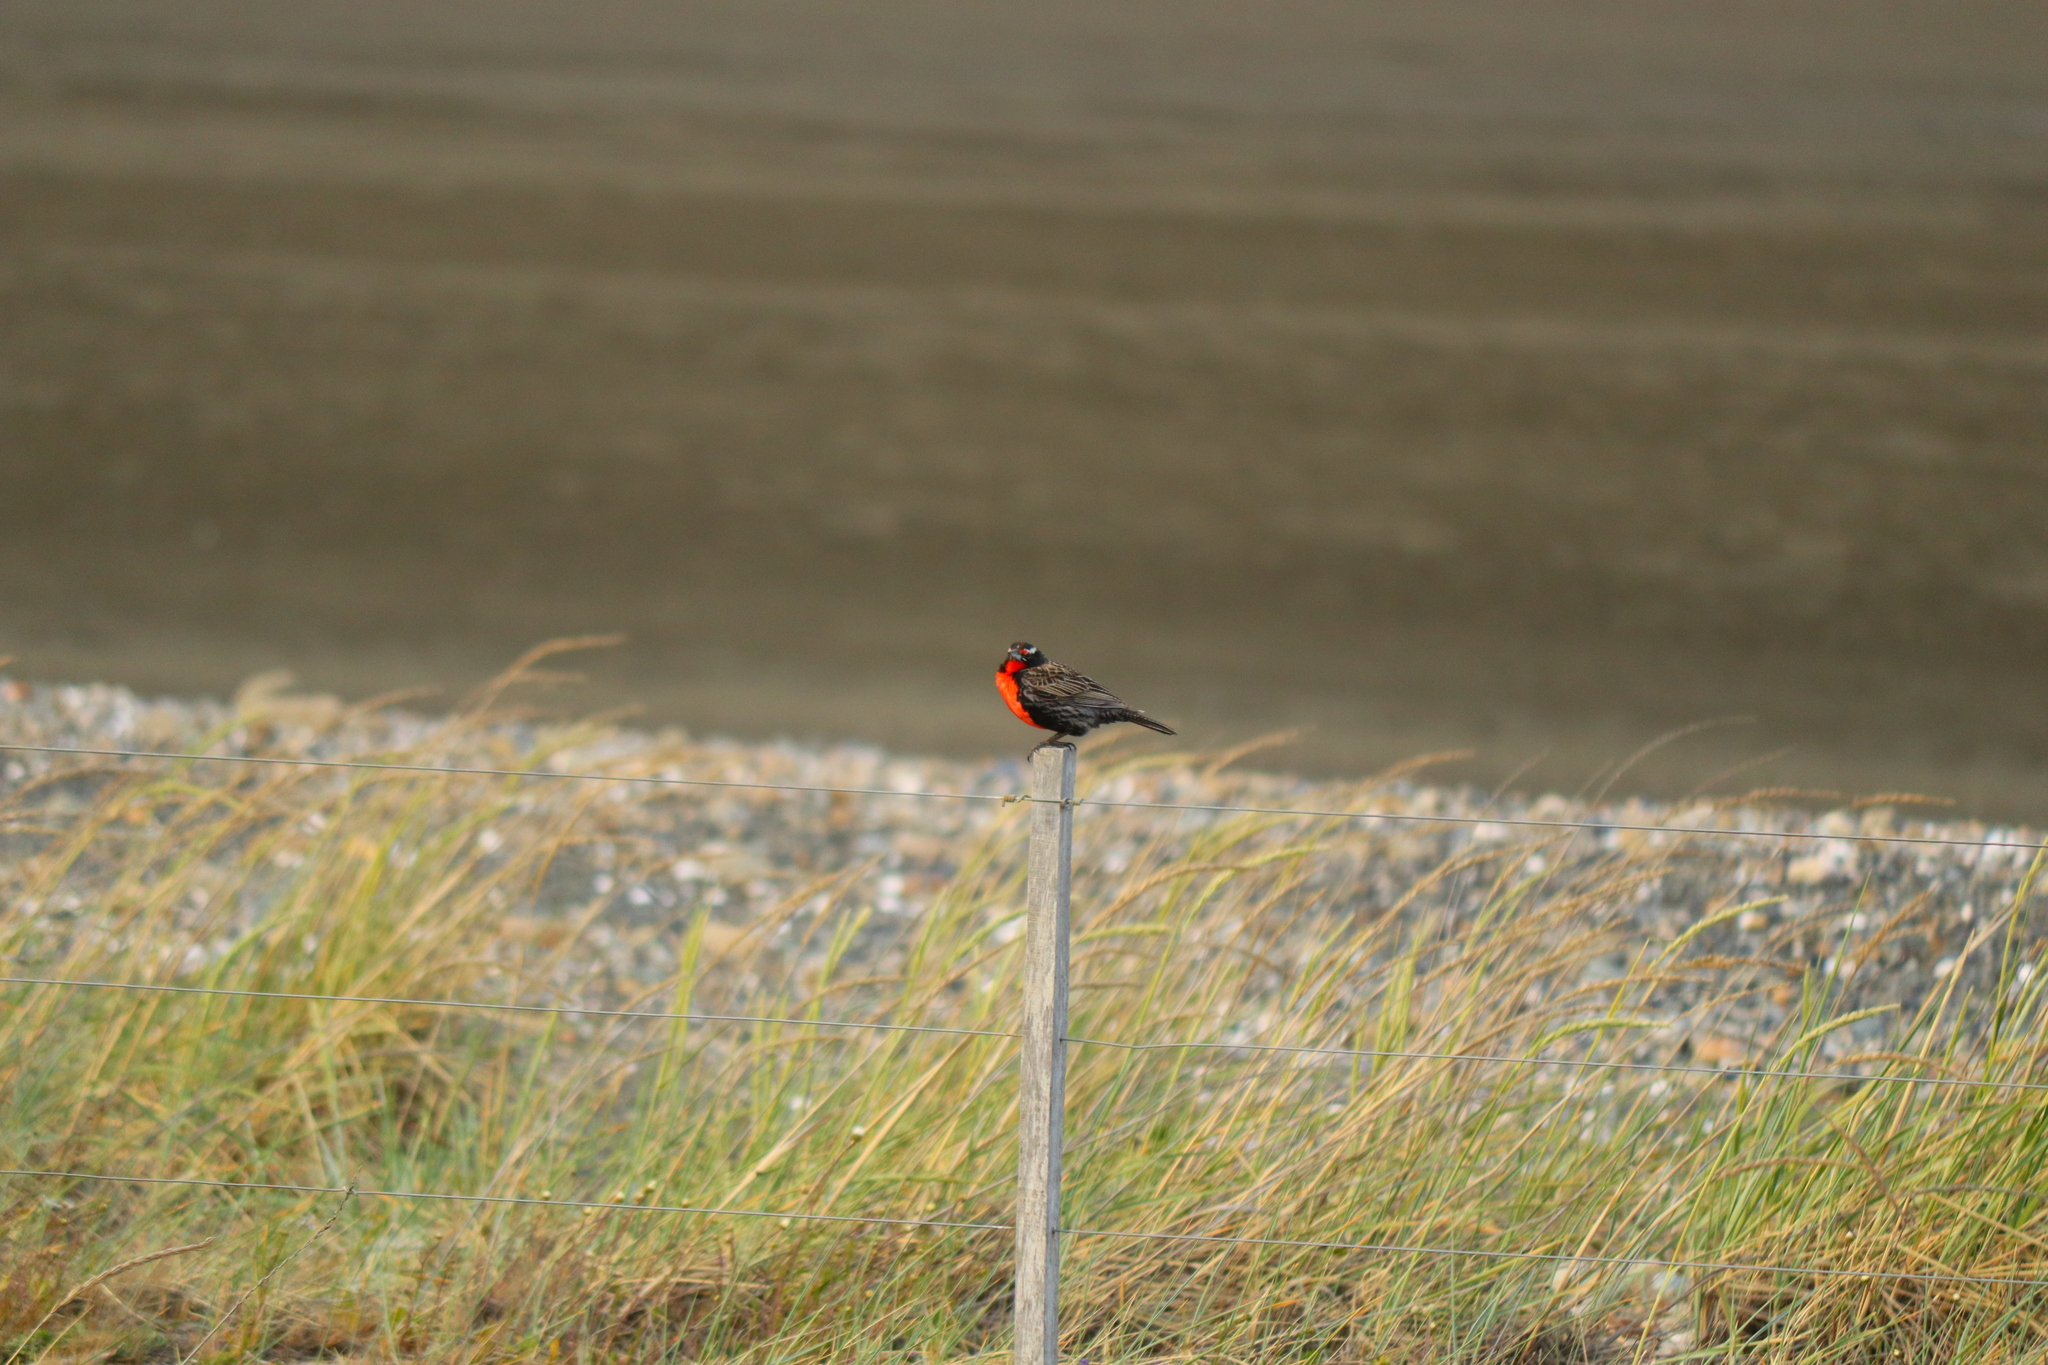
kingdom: Animalia
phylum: Chordata
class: Aves
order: Passeriformes
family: Icteridae
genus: Sturnella
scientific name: Sturnella loyca
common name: Long-tailed meadowlark
